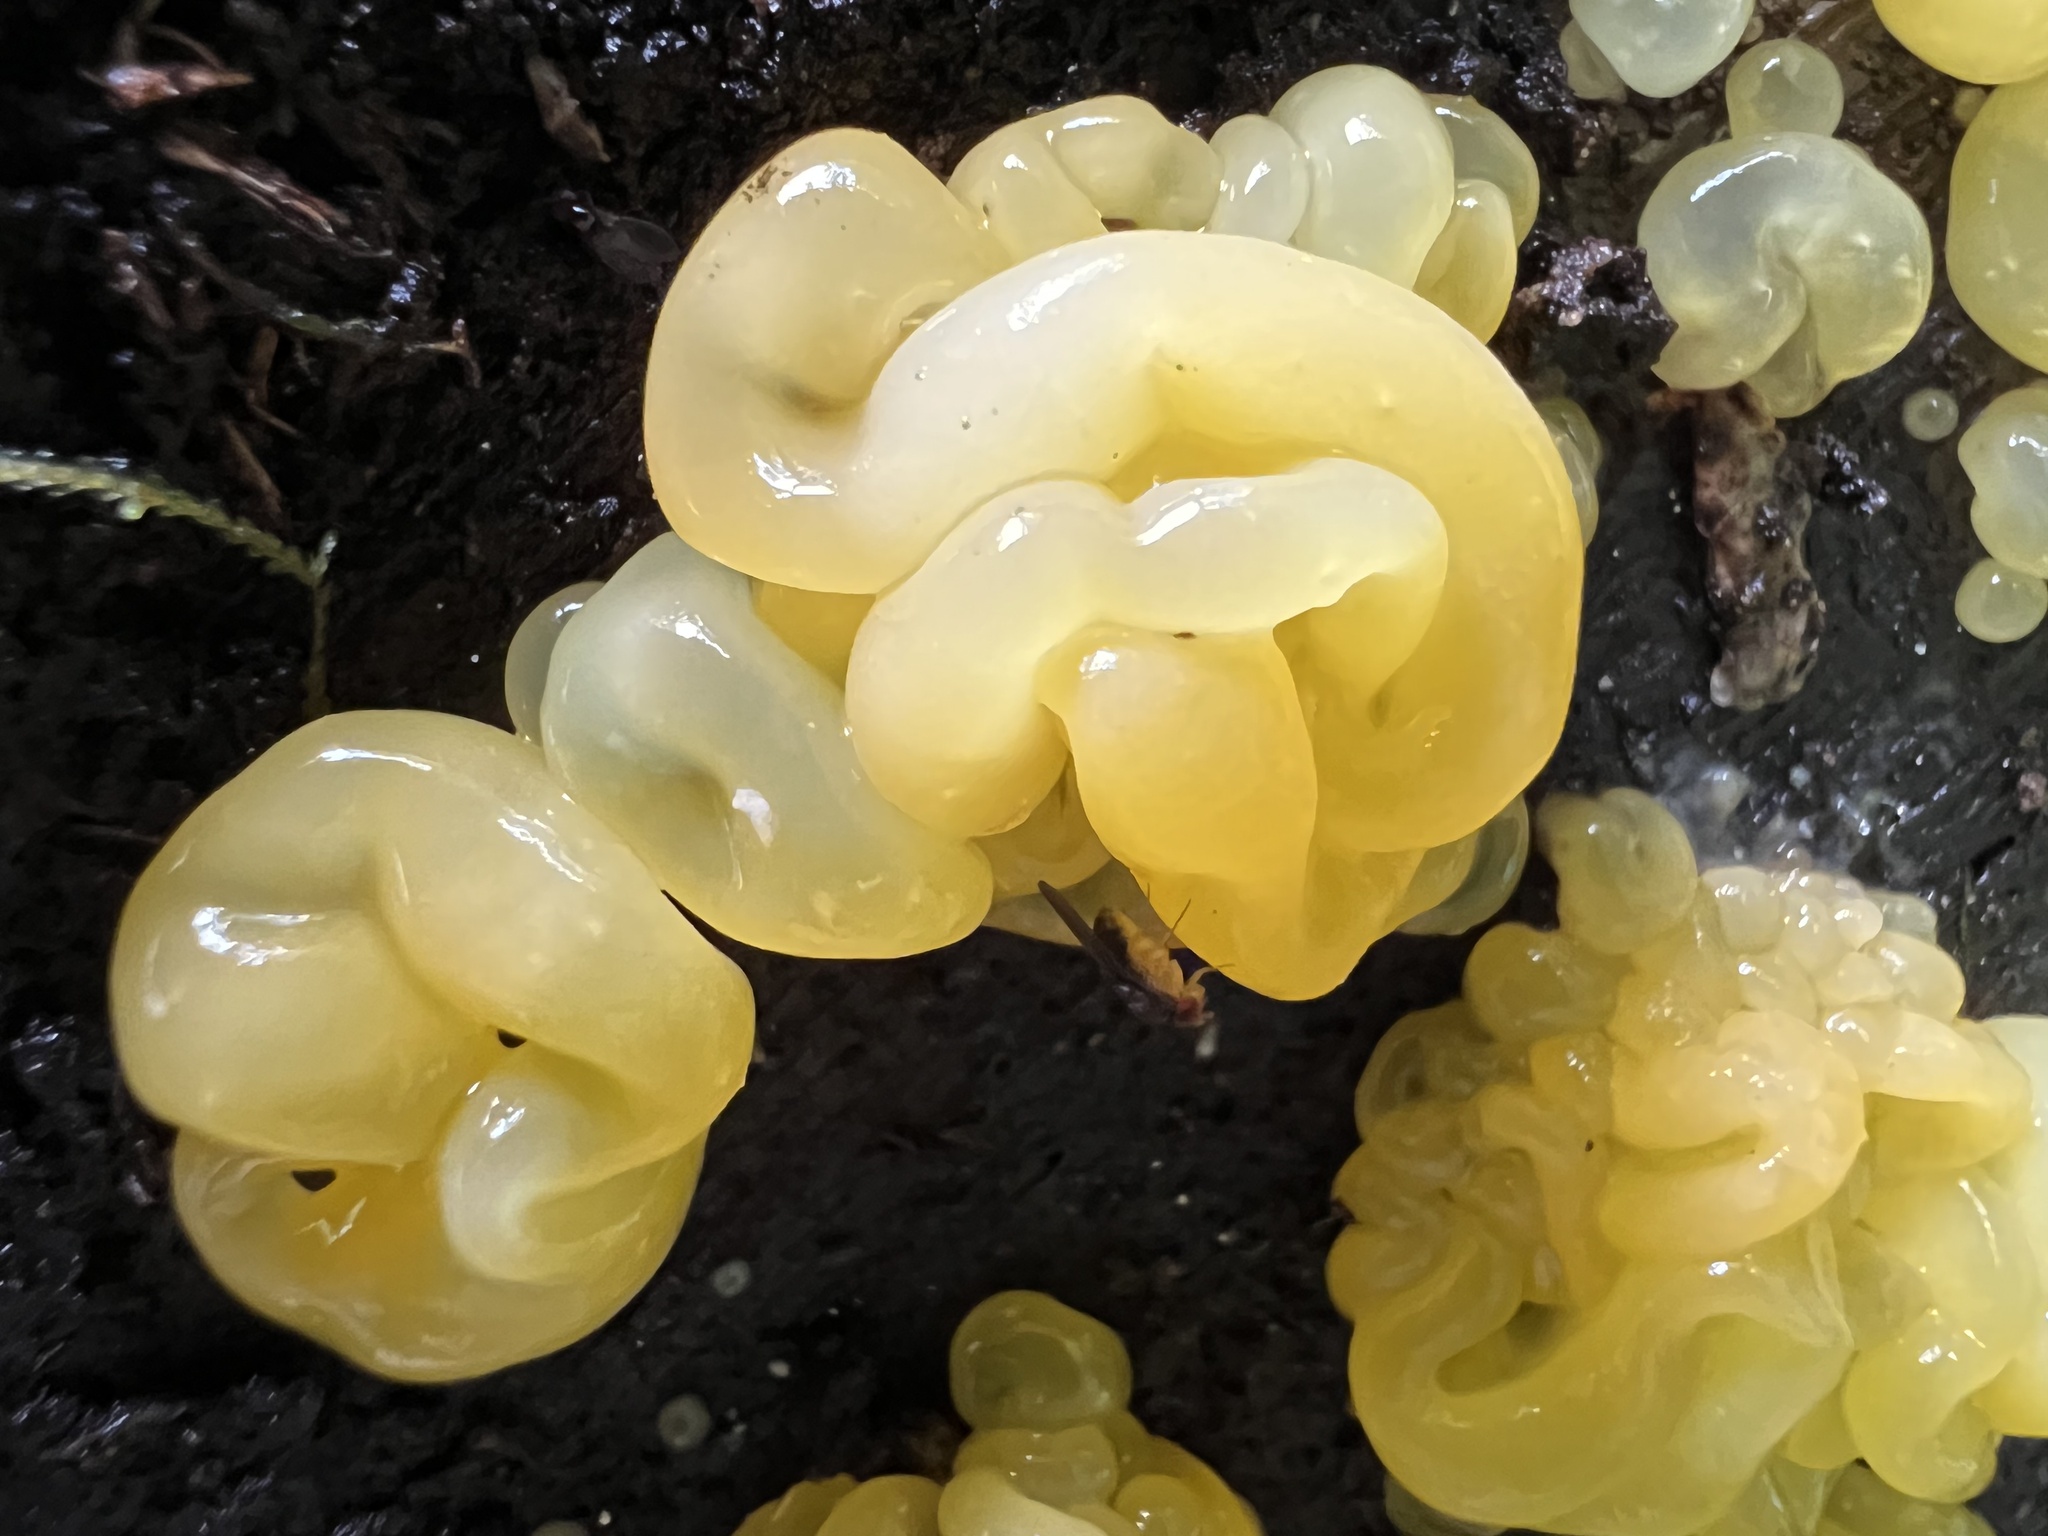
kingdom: Fungi
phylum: Basidiomycota
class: Tremellomycetes
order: Tremellales
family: Tremellaceae
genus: Tremella
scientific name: Tremella mesenterica
